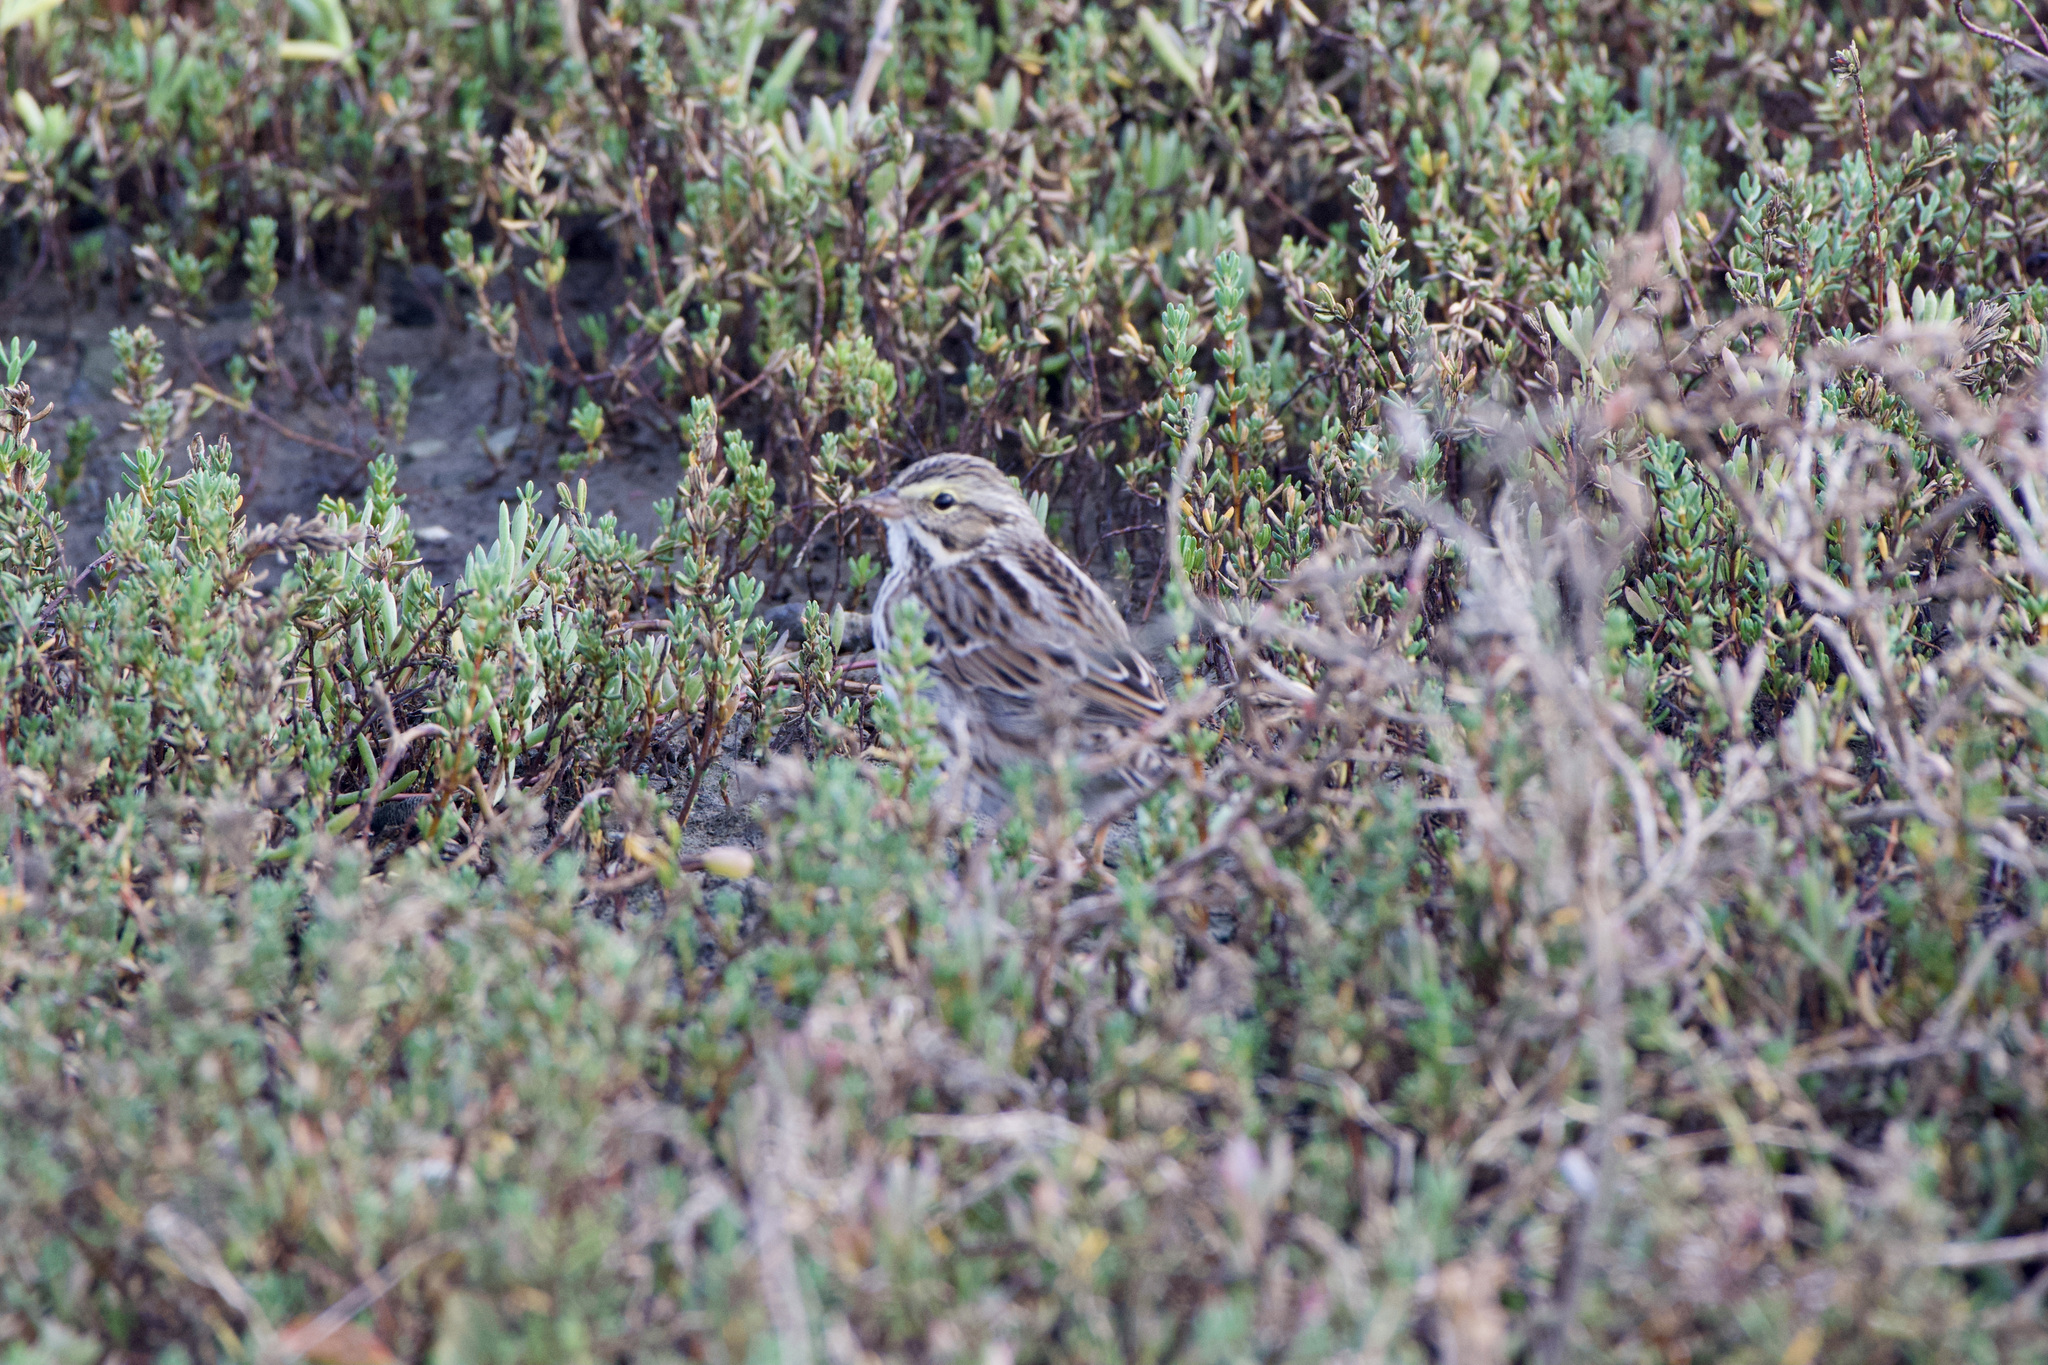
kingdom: Animalia
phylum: Chordata
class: Aves
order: Passeriformes
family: Passerellidae
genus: Passerculus
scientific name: Passerculus sandwichensis
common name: Savannah sparrow
